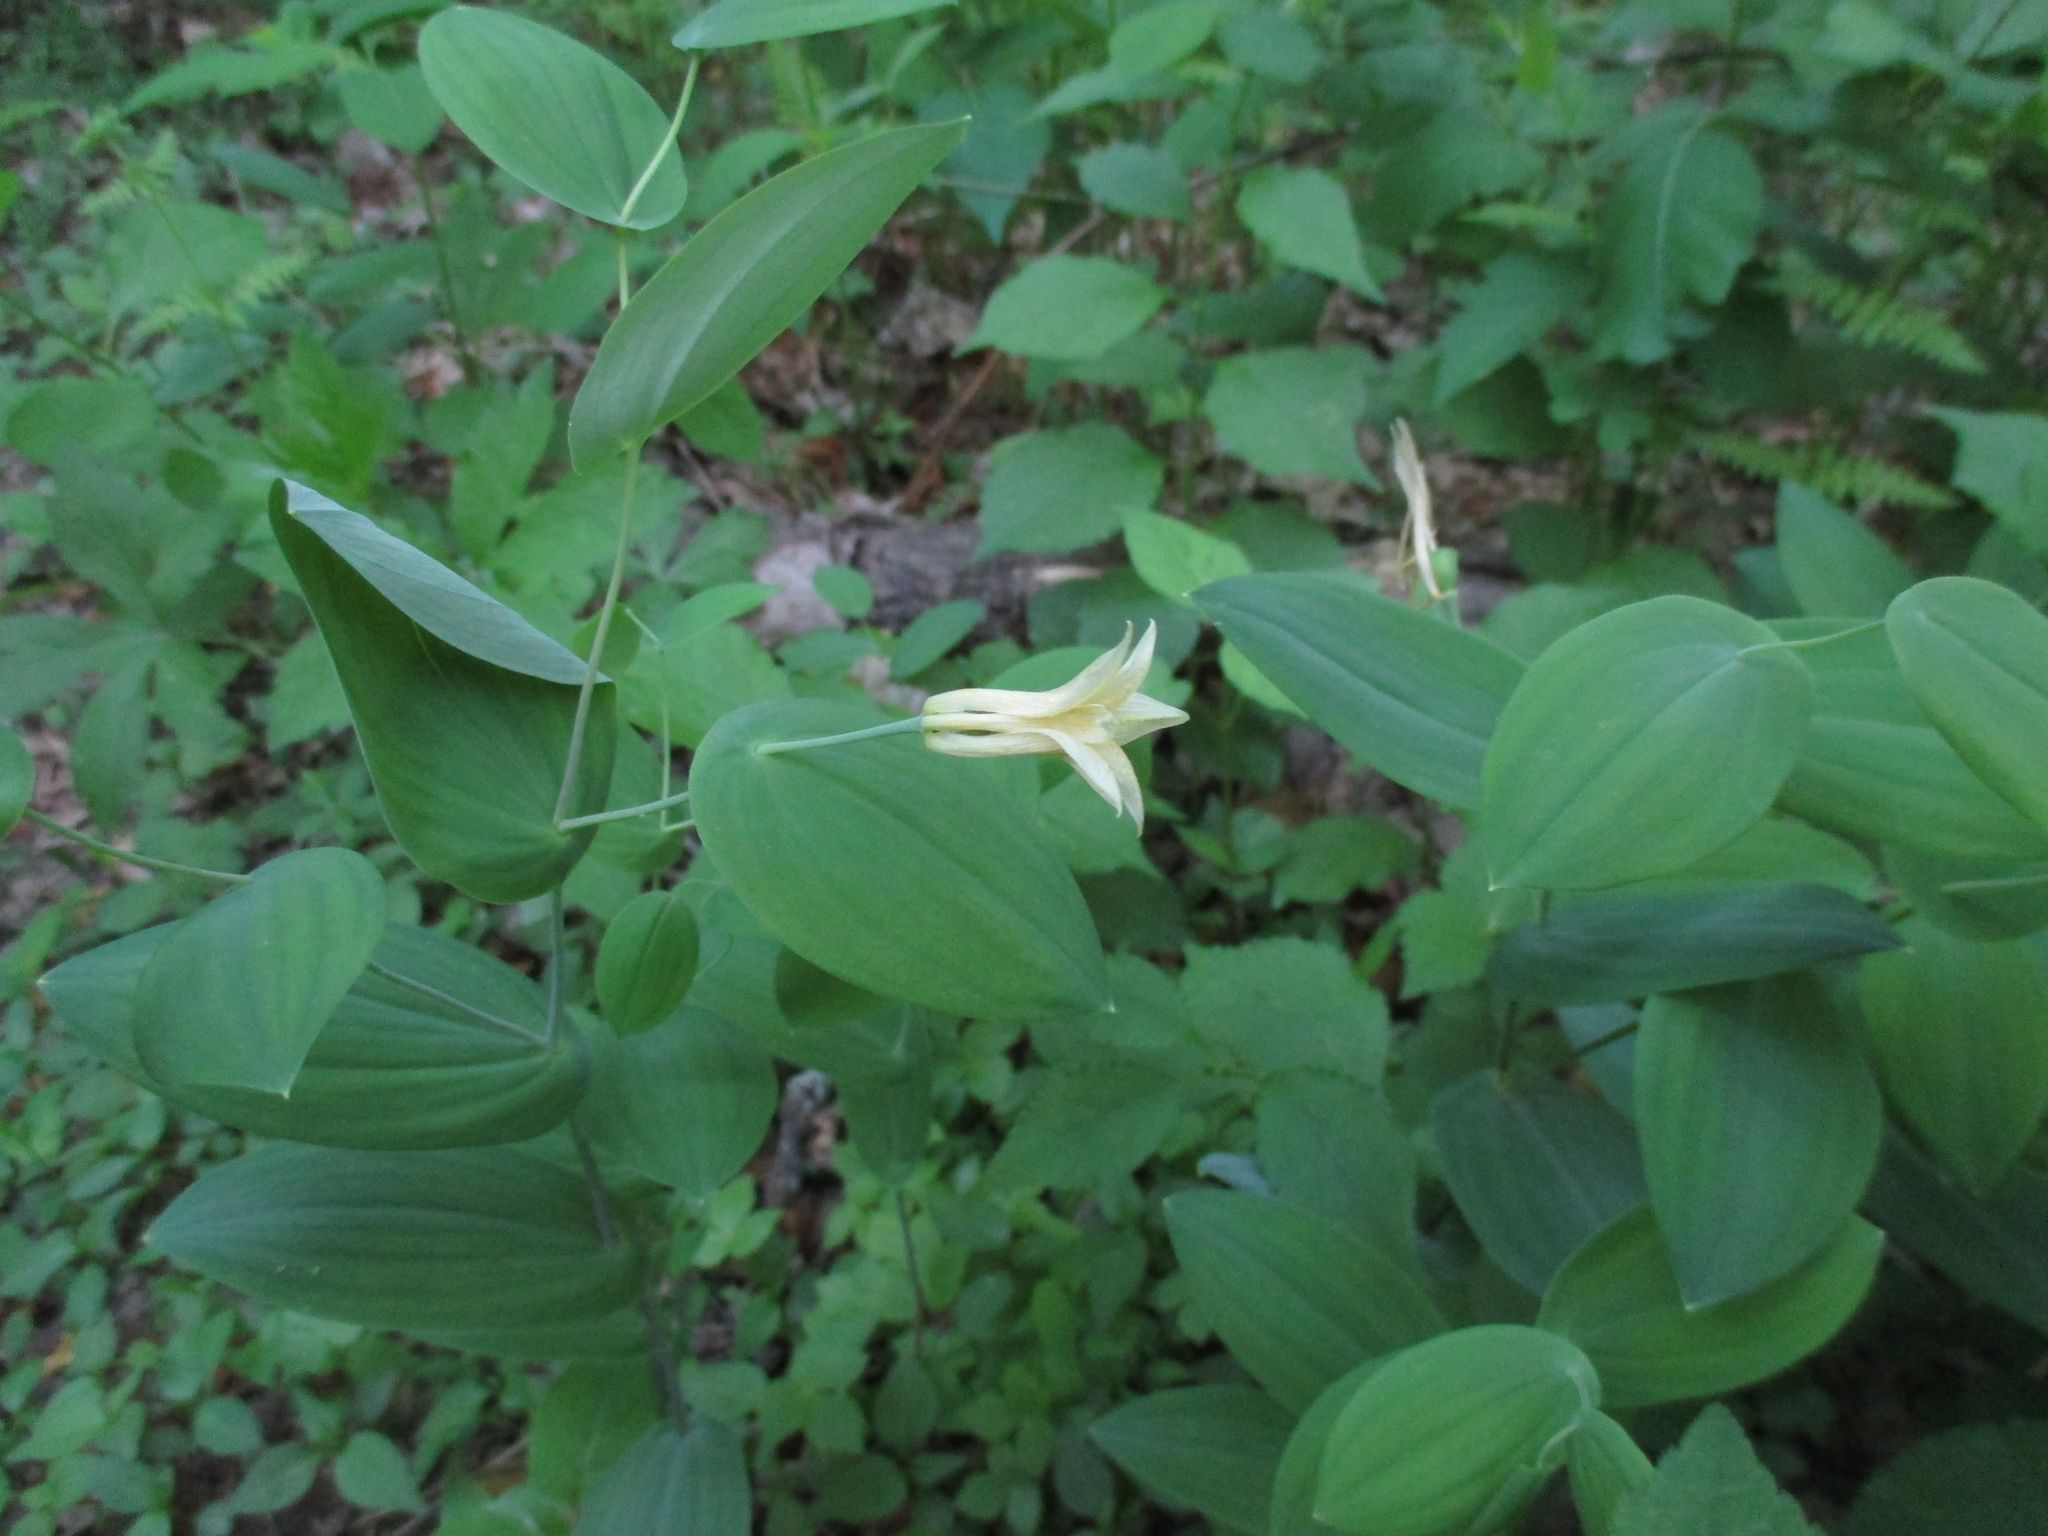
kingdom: Plantae
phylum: Tracheophyta
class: Liliopsida
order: Liliales
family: Colchicaceae
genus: Uvularia
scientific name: Uvularia perfoliata
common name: Perfoliate bellwort
